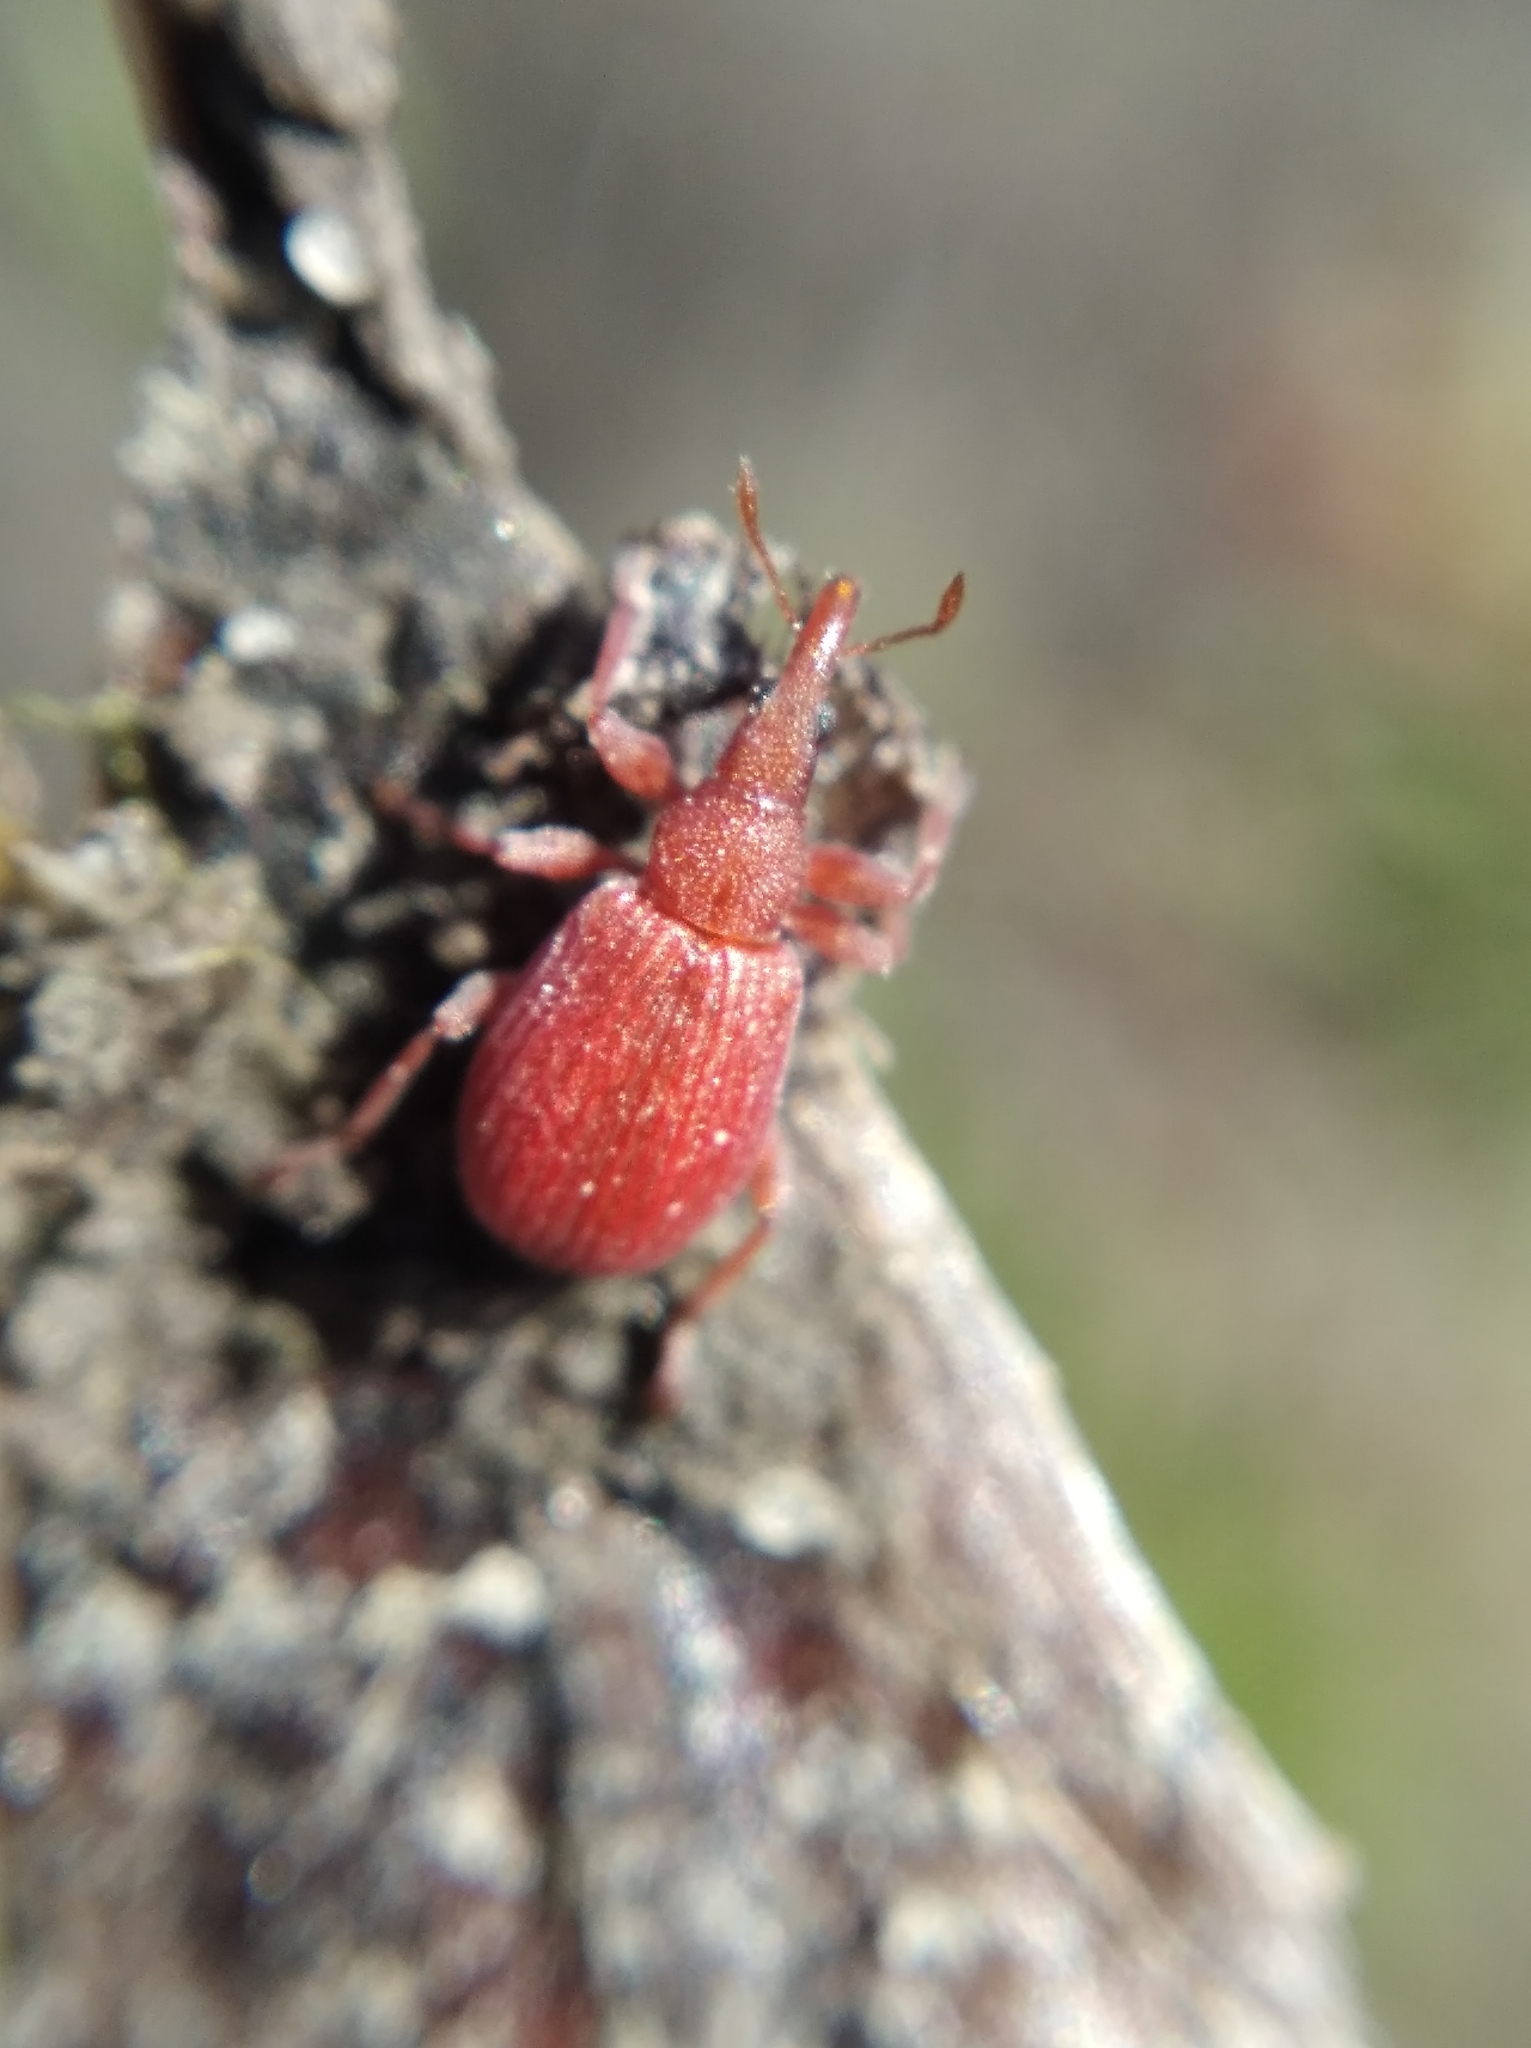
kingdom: Animalia
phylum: Arthropoda
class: Insecta
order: Coleoptera
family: Apionidae
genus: Apion
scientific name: Apion frumentarium
